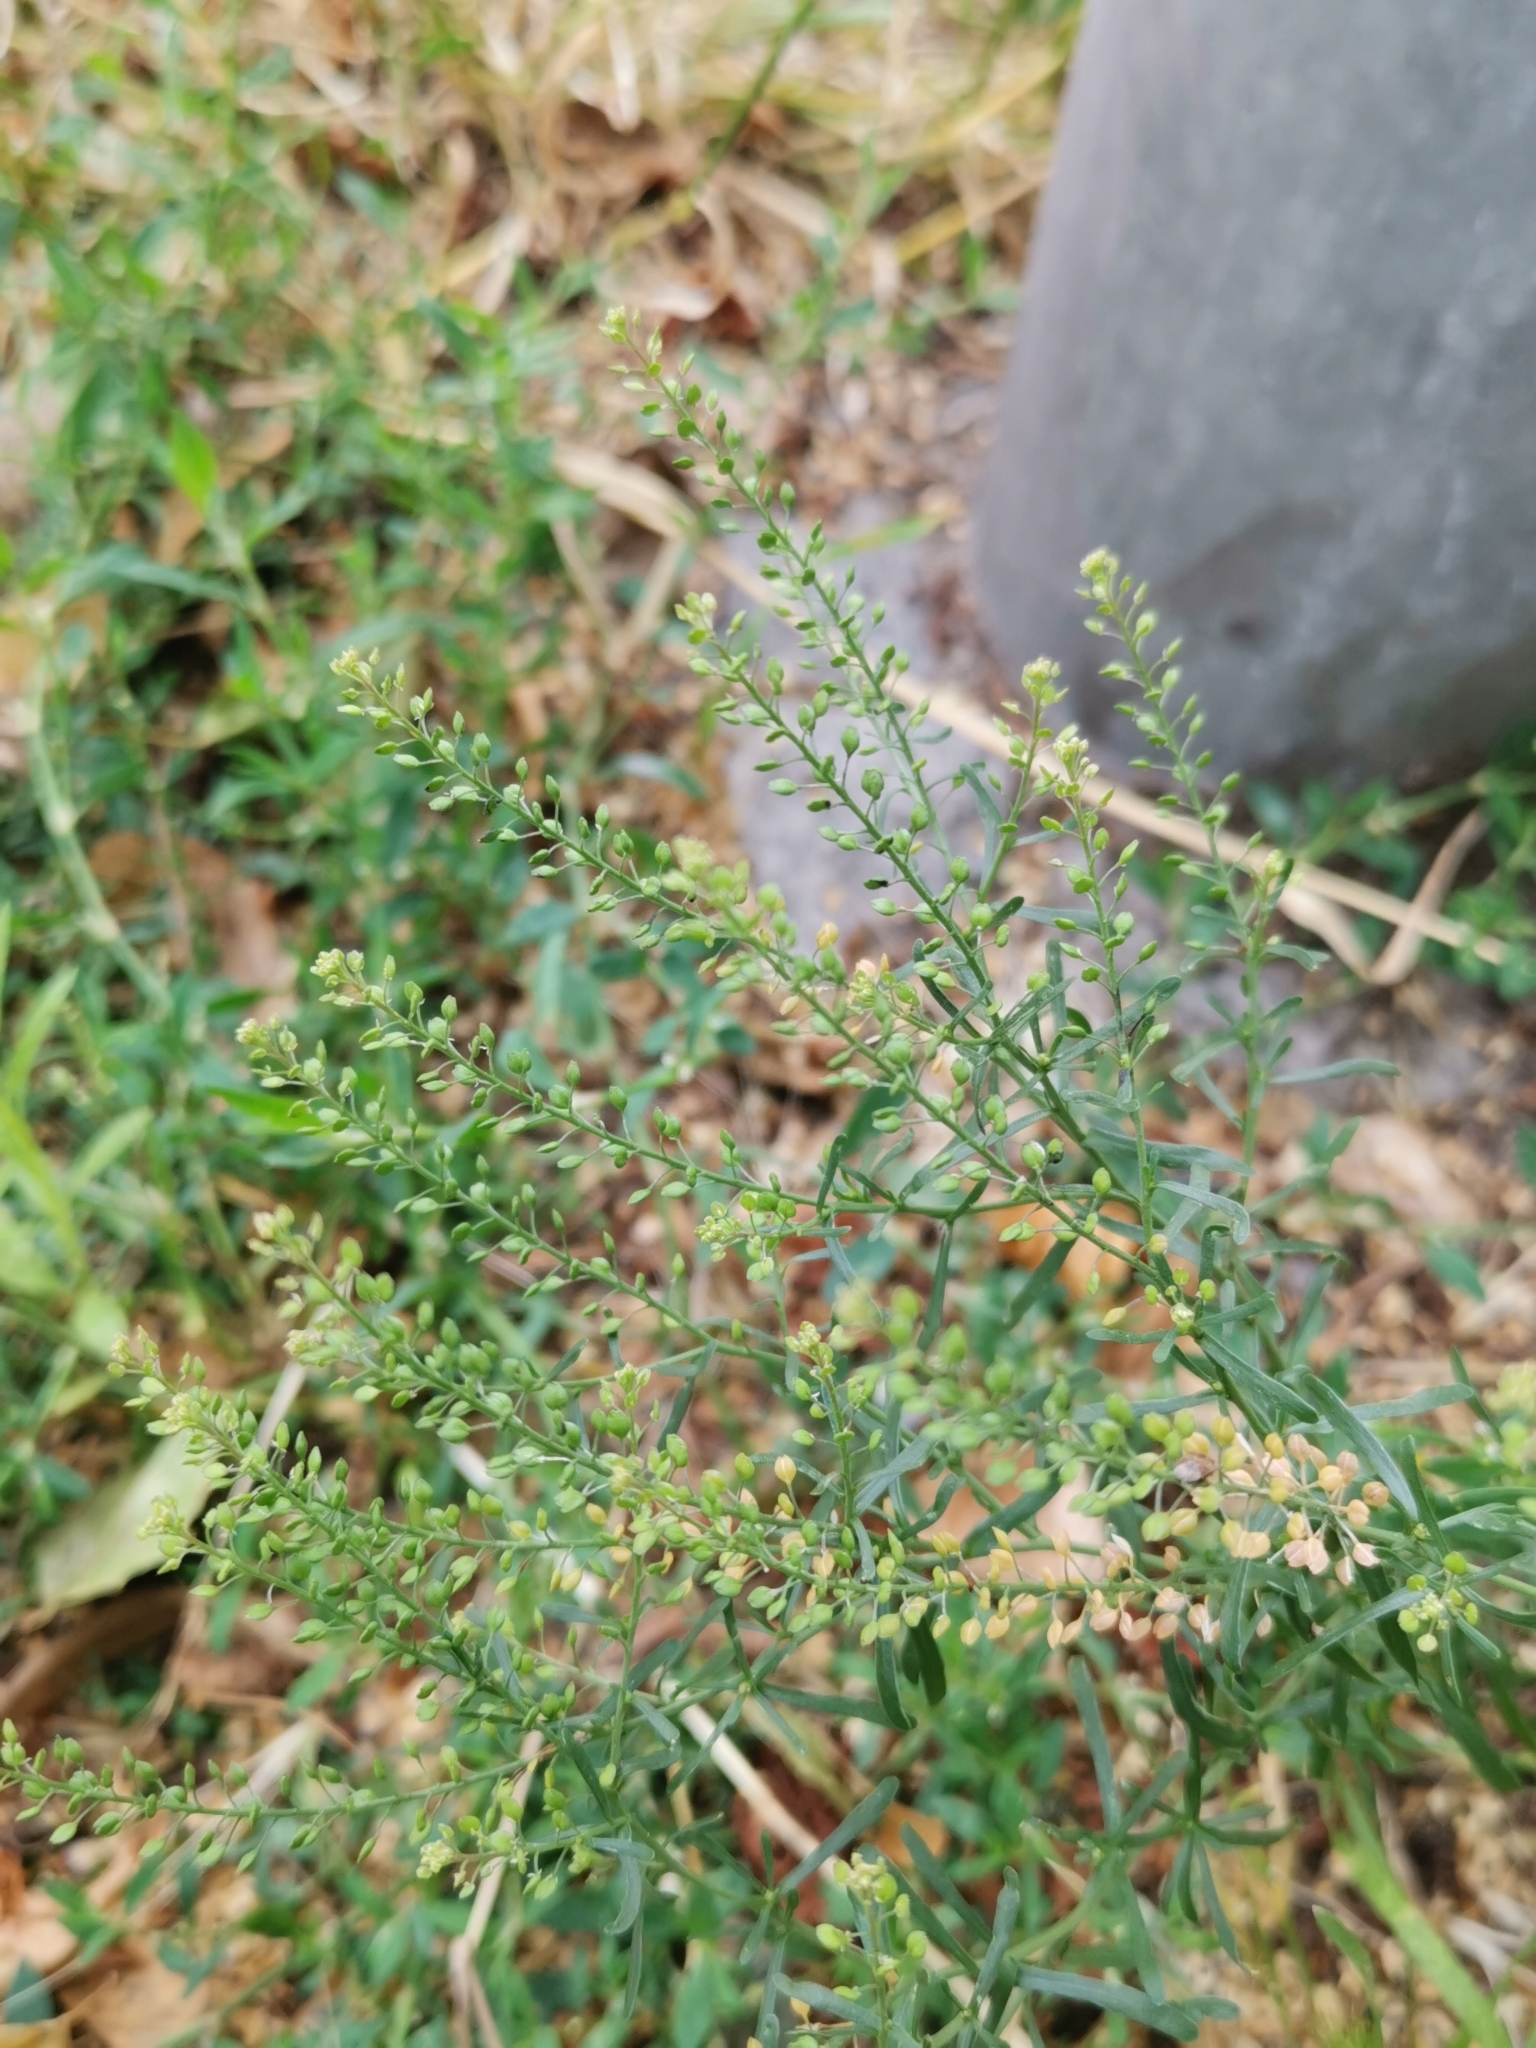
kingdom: Plantae
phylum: Tracheophyta
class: Magnoliopsida
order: Brassicales
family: Brassicaceae
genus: Lepidium
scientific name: Lepidium ruderale
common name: Narrow-leaved pepperwort
